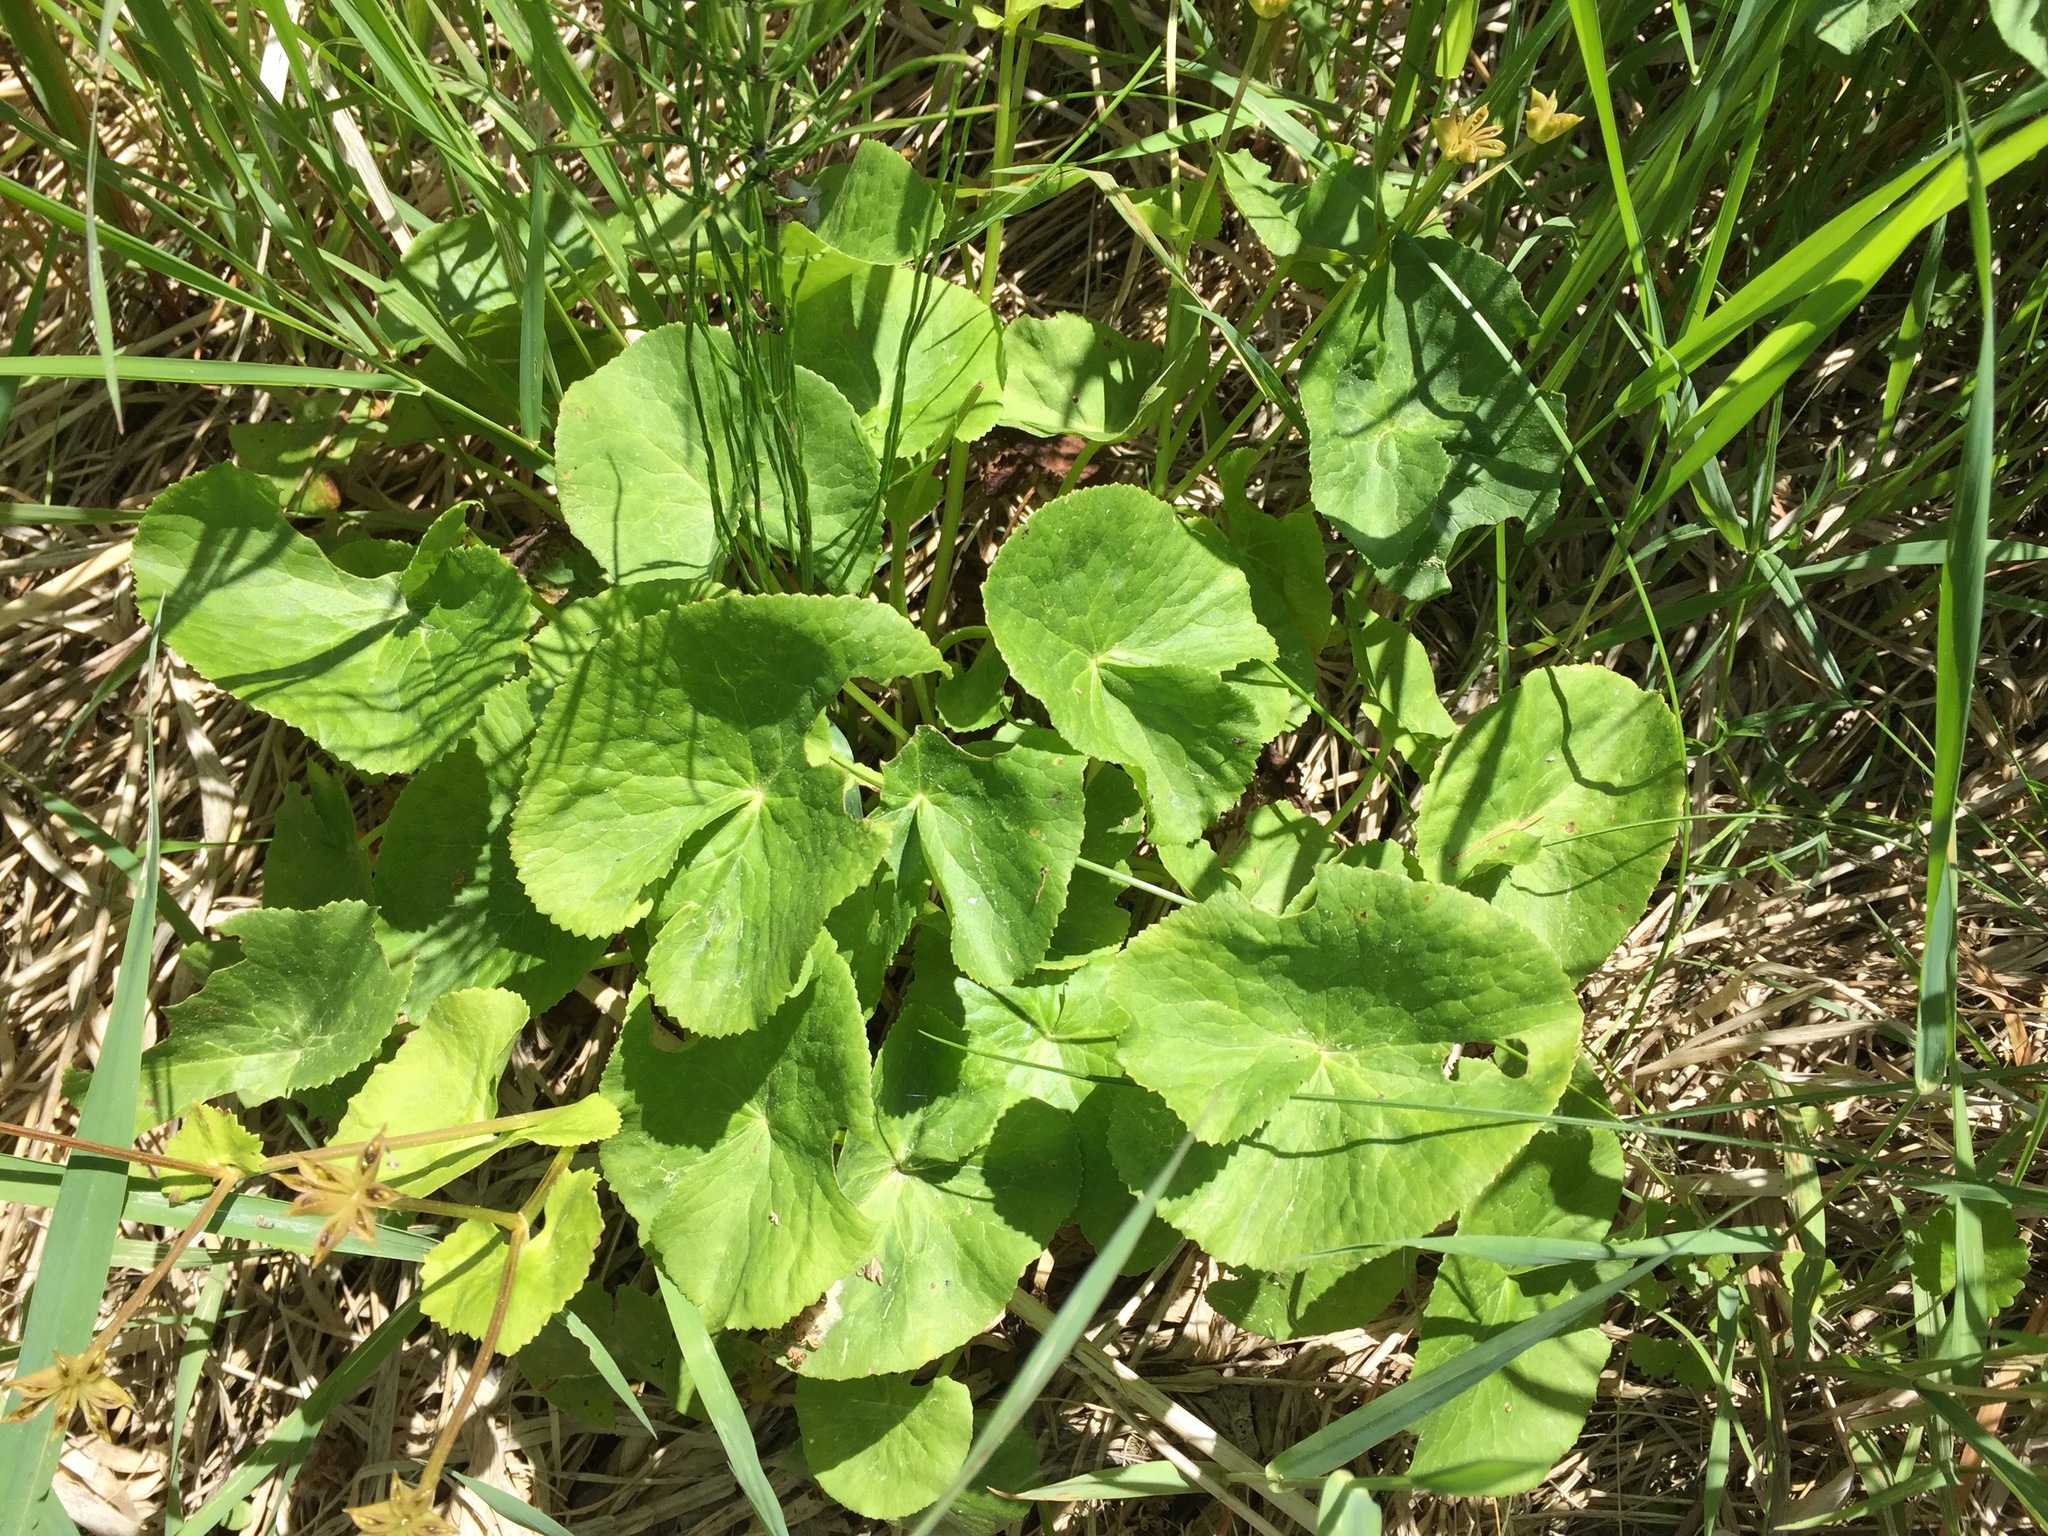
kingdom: Plantae
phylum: Tracheophyta
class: Magnoliopsida
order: Ranunculales
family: Ranunculaceae
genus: Caltha
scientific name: Caltha palustris
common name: Marsh marigold
